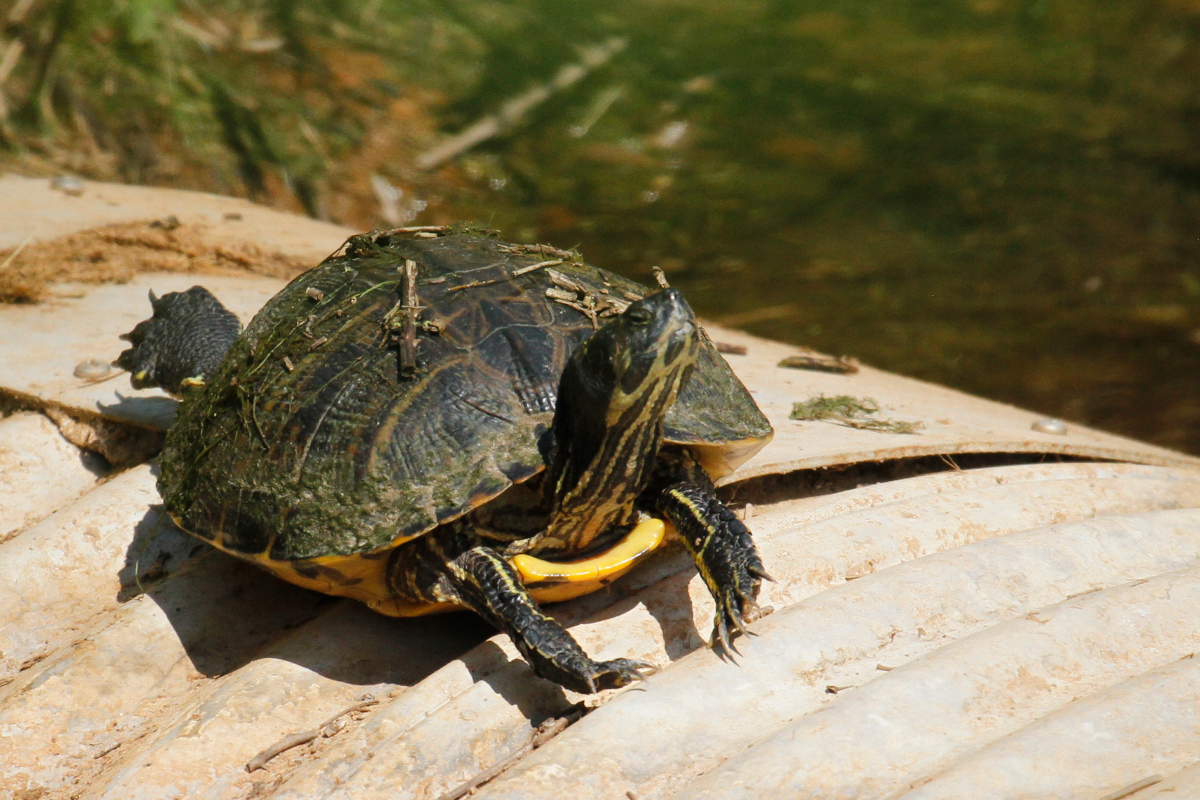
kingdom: Animalia
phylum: Chordata
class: Testudines
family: Emydidae
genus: Trachemys
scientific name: Trachemys scripta
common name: Slider
